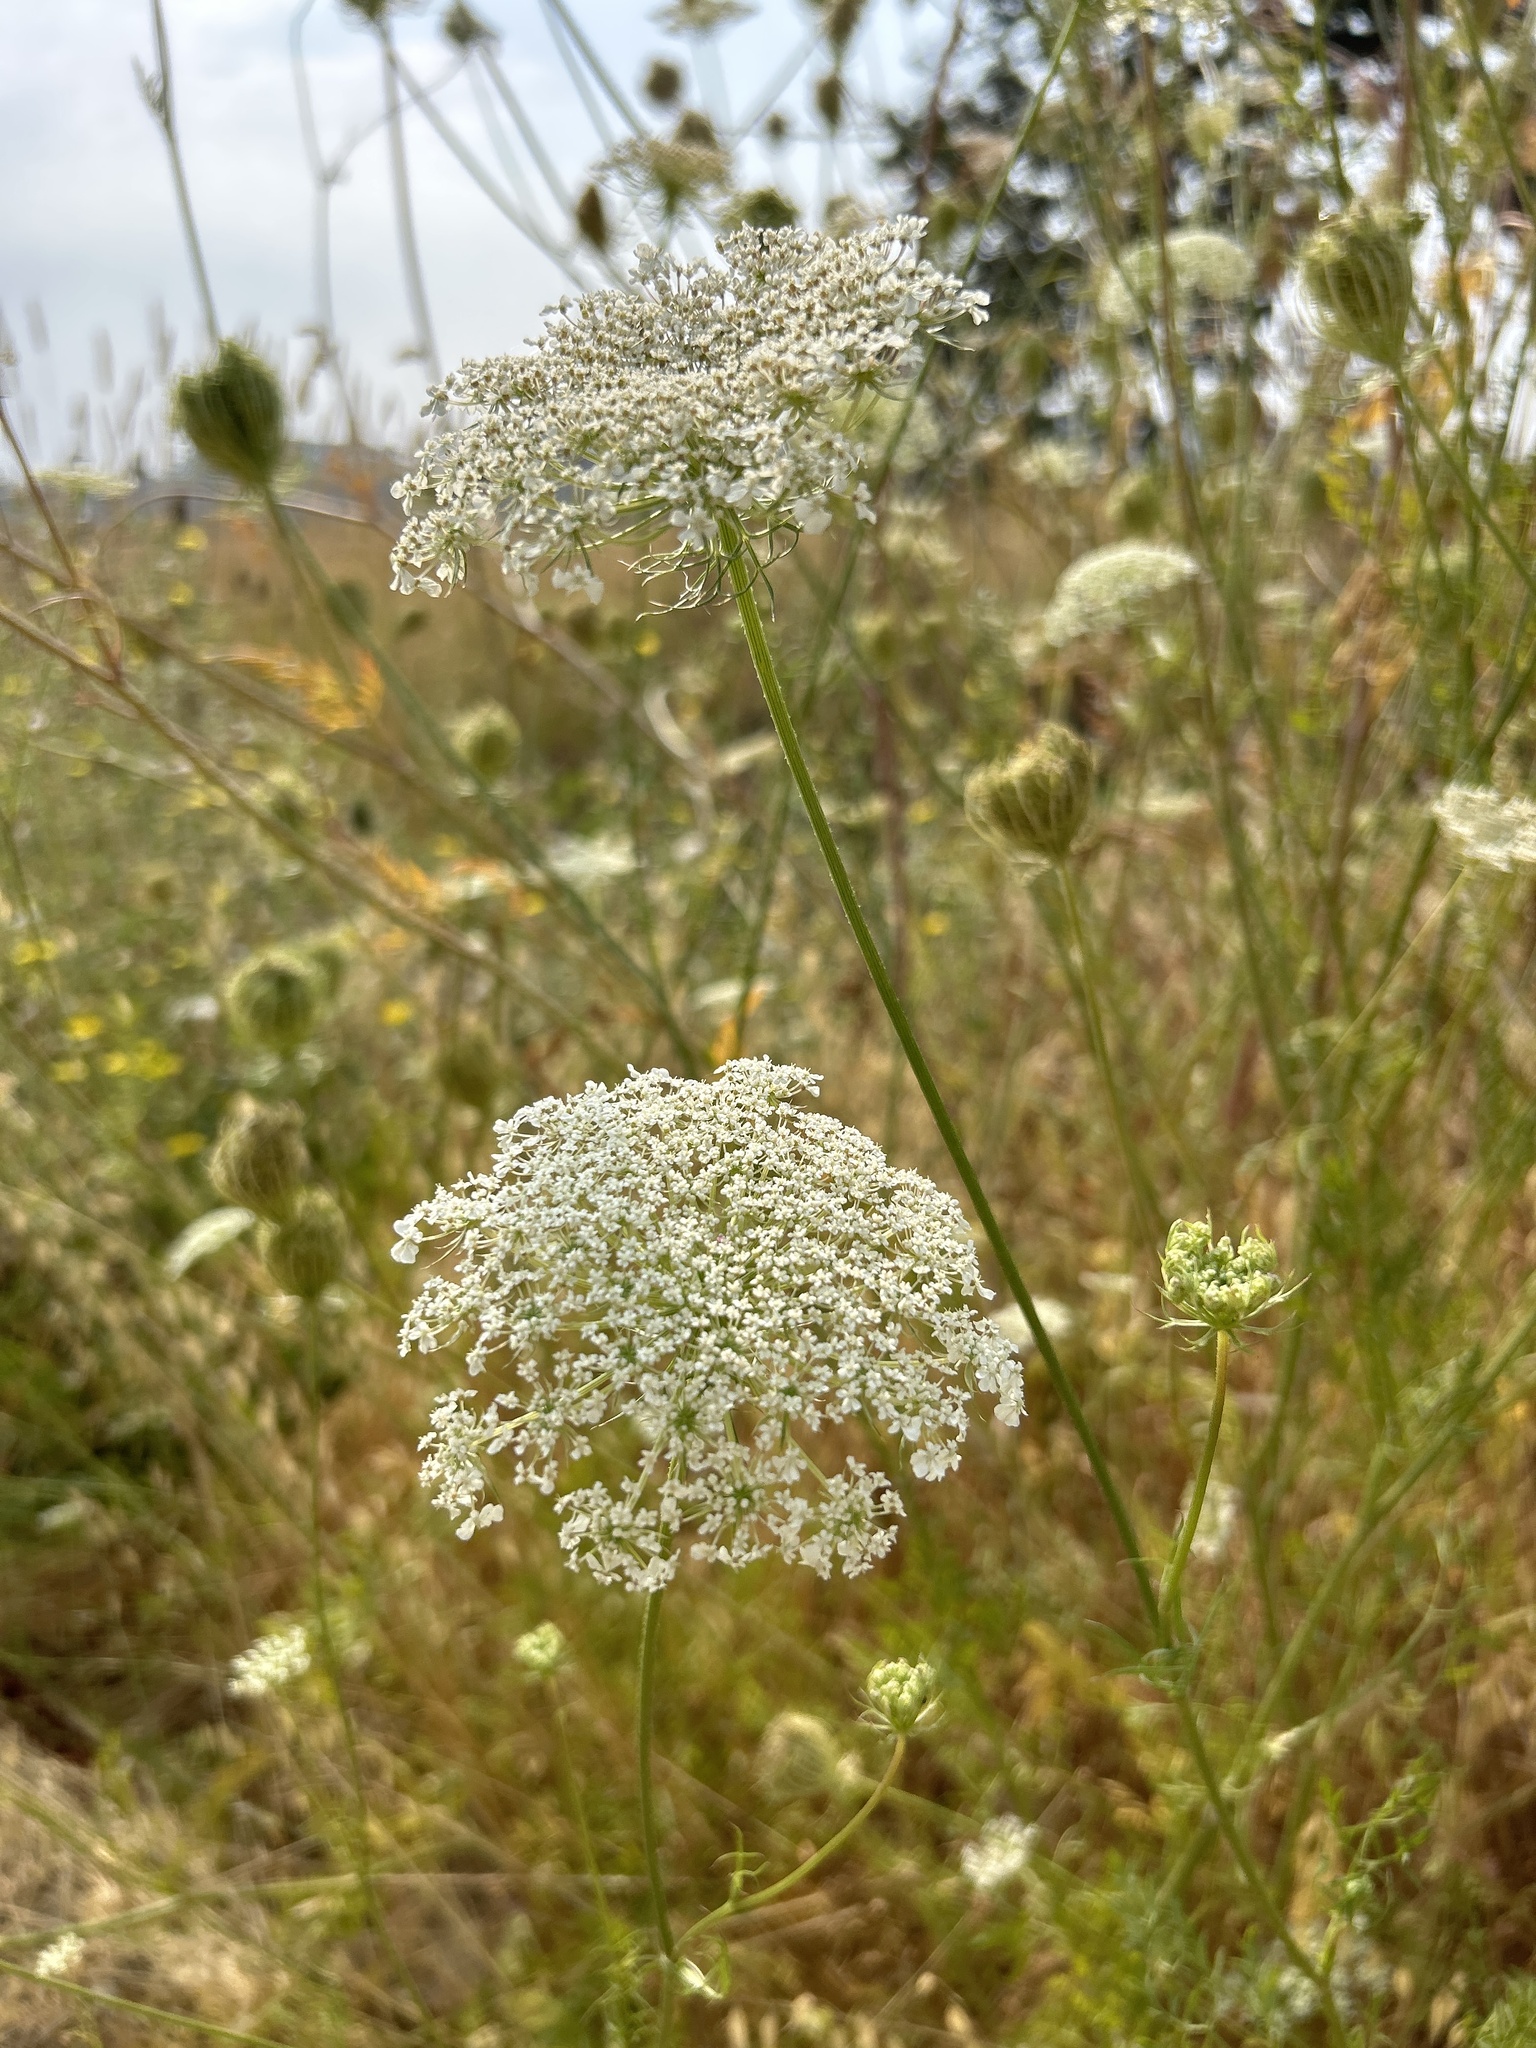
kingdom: Plantae
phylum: Tracheophyta
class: Magnoliopsida
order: Apiales
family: Apiaceae
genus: Daucus
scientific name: Daucus carota
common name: Wild carrot
